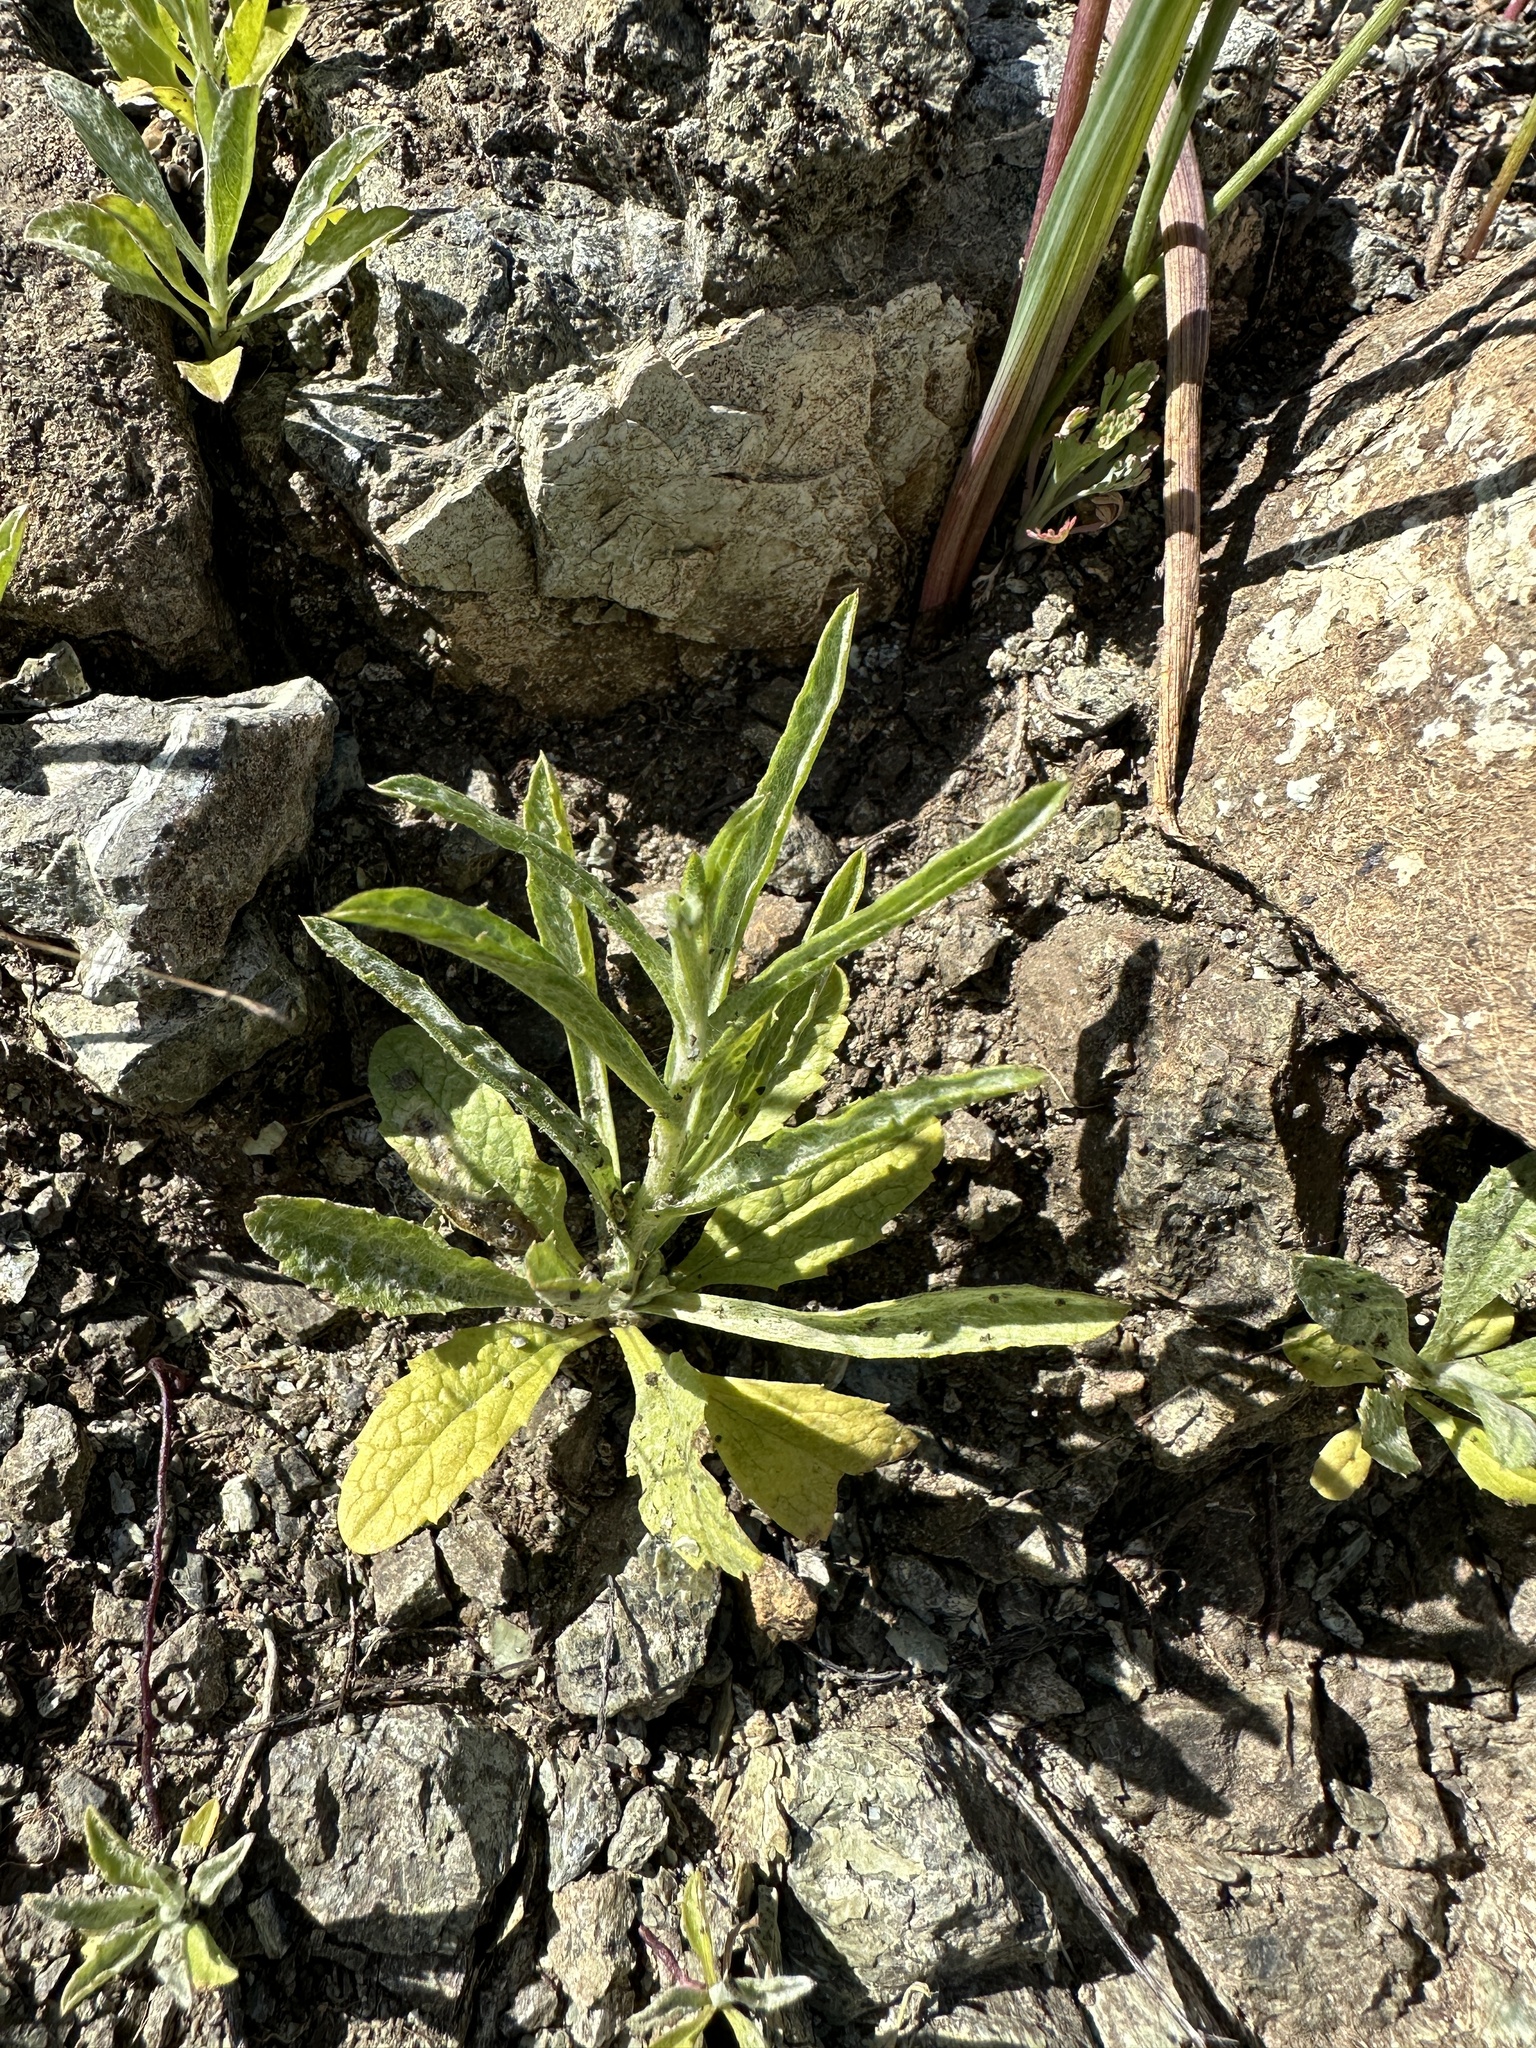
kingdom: Plantae
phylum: Tracheophyta
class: Magnoliopsida
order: Asterales
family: Asteraceae
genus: Lessingia
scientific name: Lessingia micradenia
